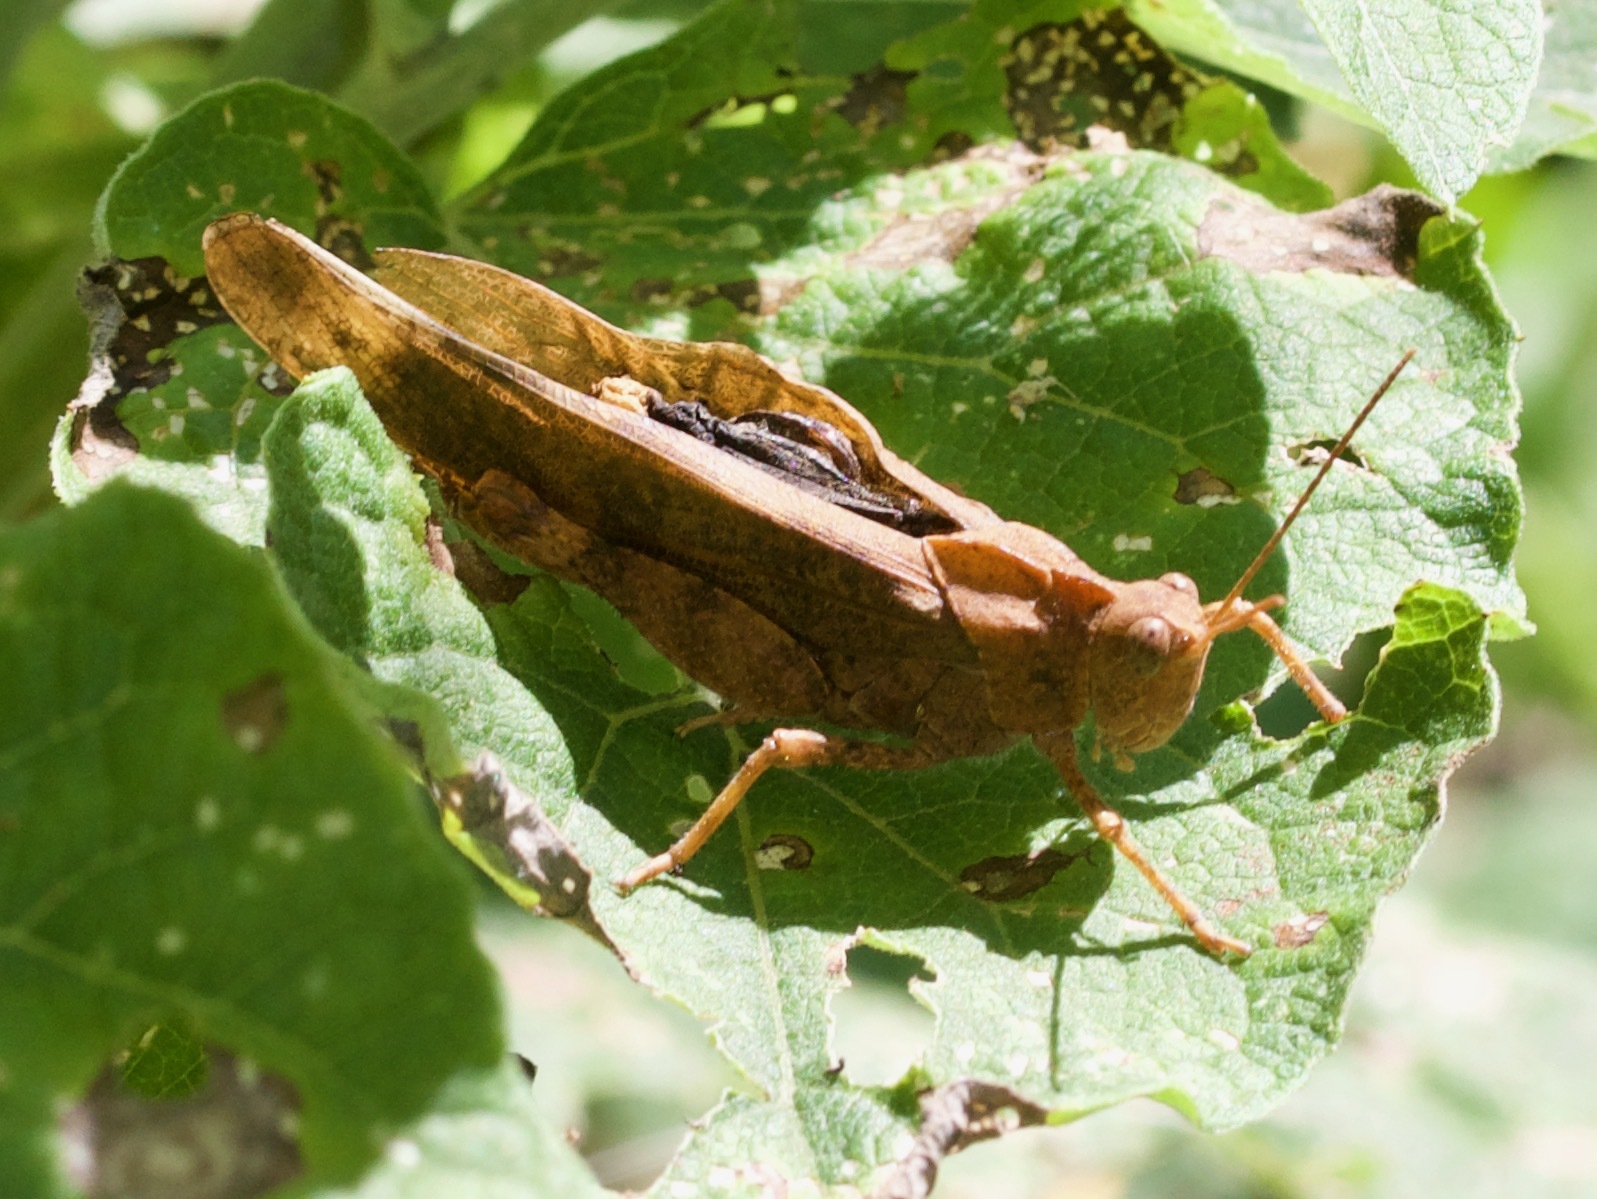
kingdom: Animalia
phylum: Arthropoda
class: Insecta
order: Orthoptera
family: Acrididae
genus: Dissosteira
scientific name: Dissosteira carolina
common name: Carolina grasshopper
